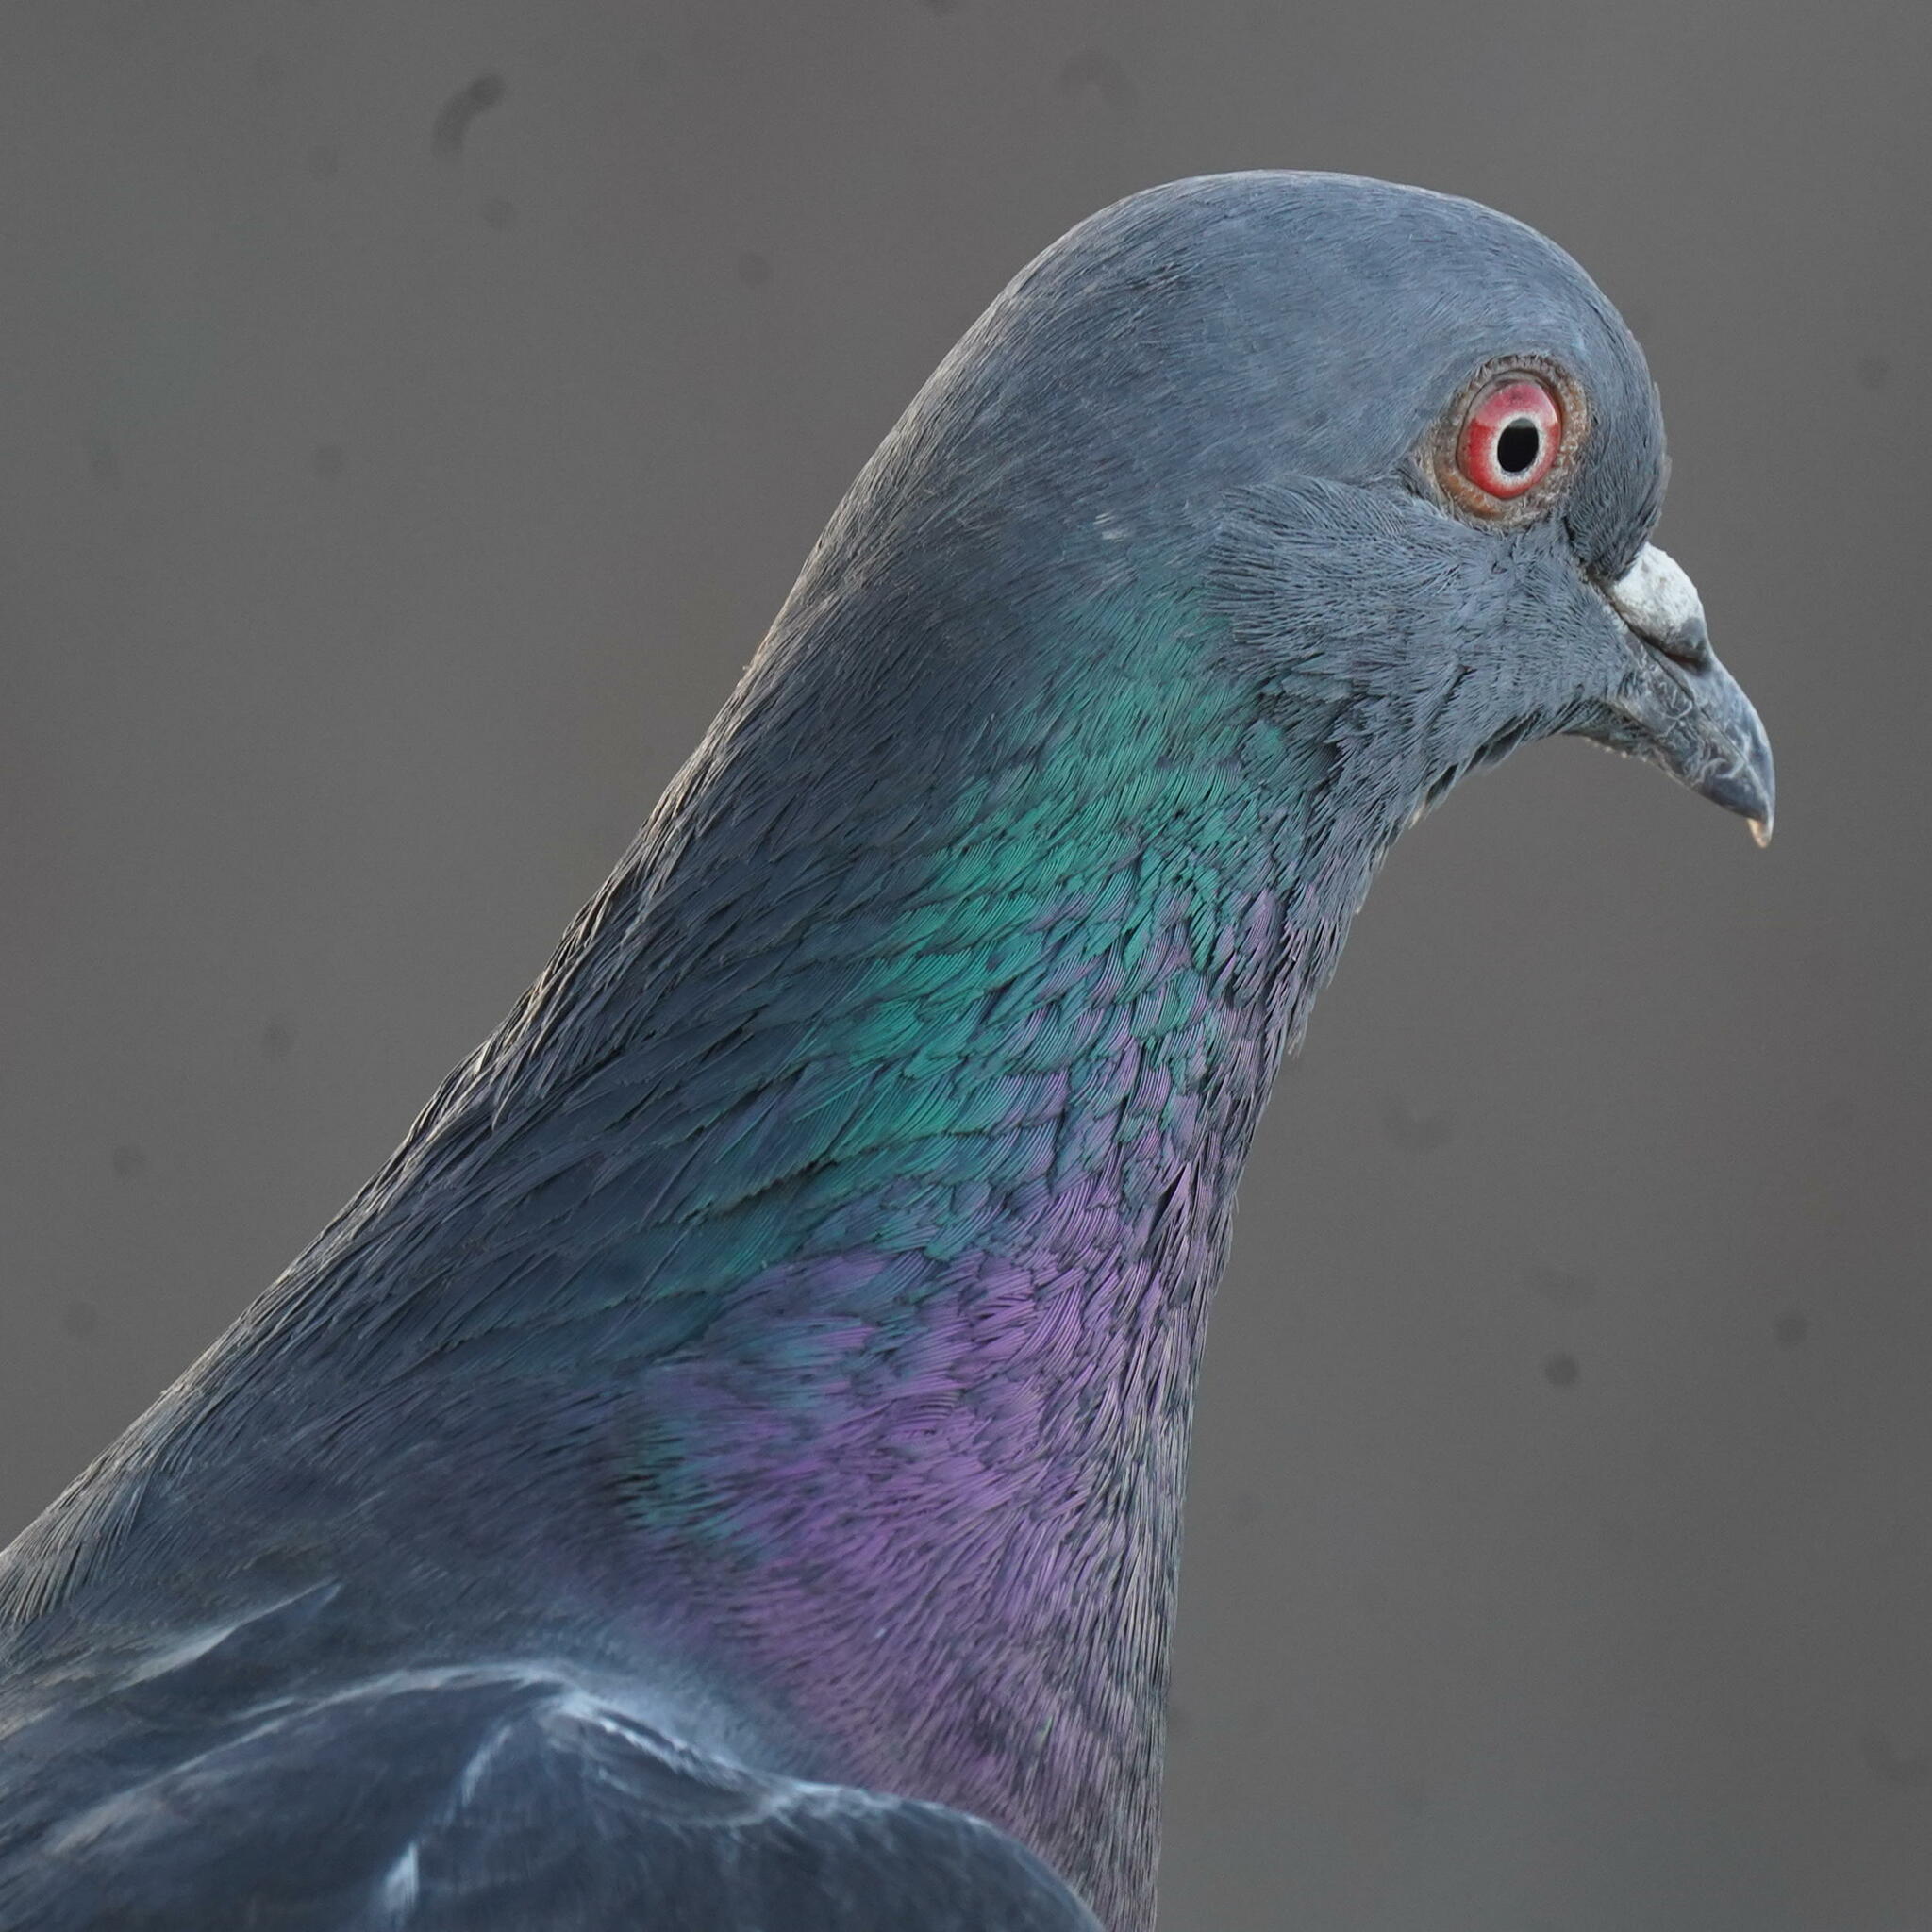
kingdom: Animalia
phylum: Chordata
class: Aves
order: Columbiformes
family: Columbidae
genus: Columba
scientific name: Columba livia
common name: Rock pigeon
